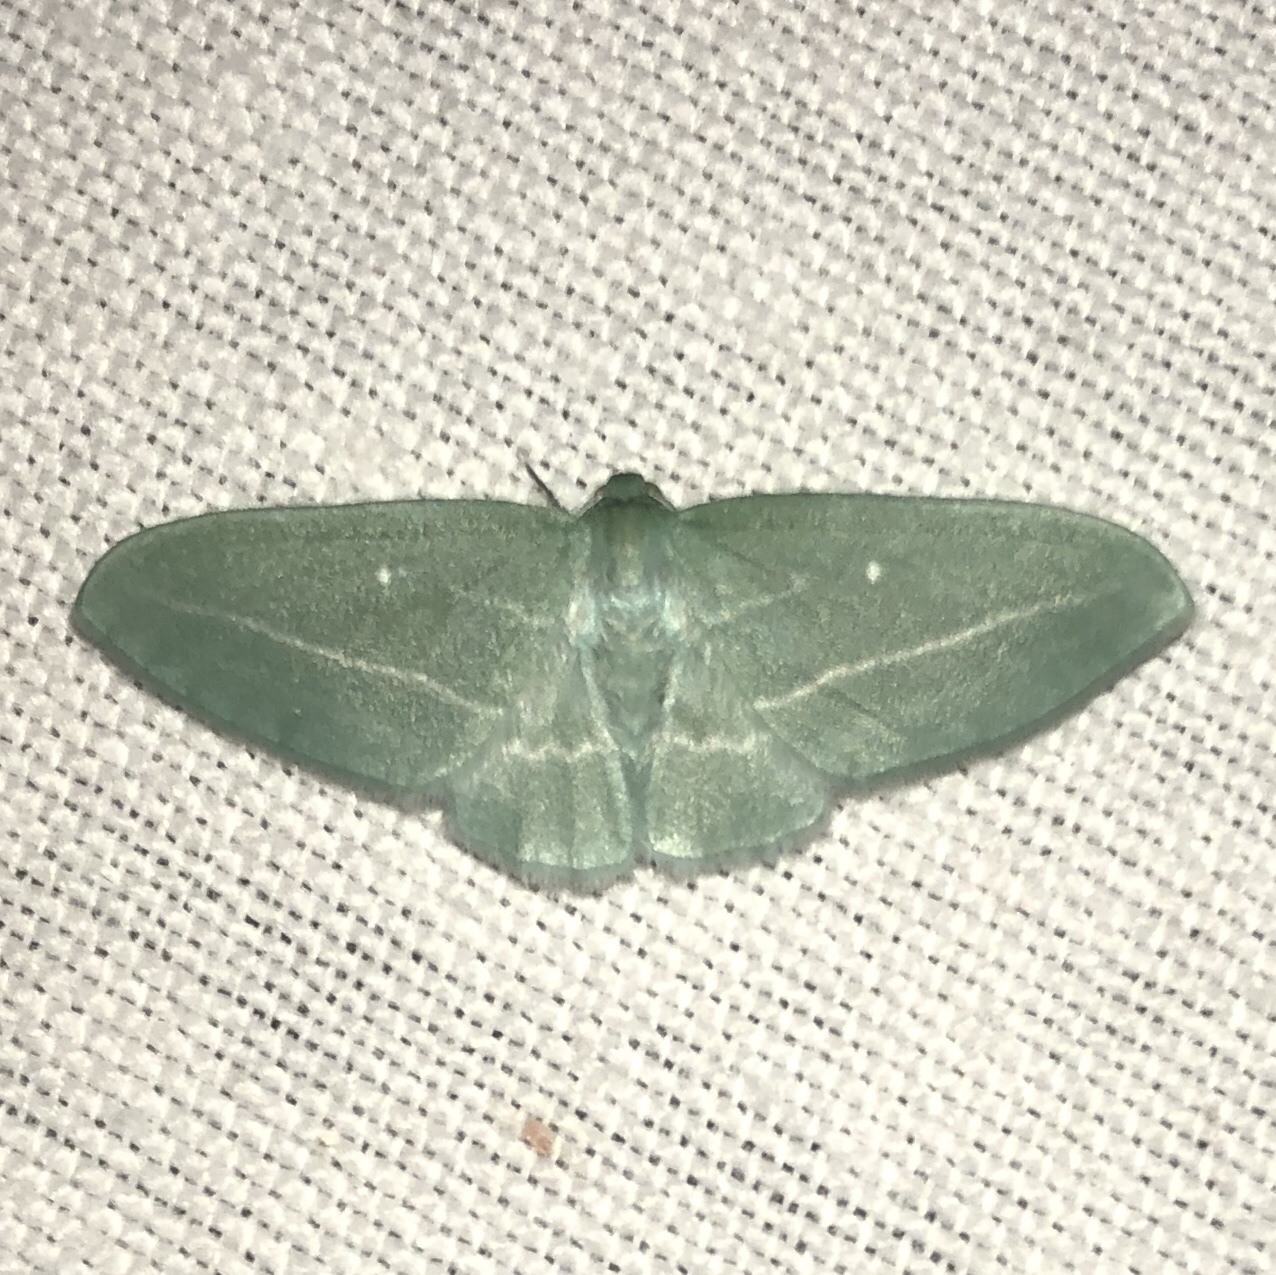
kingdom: Animalia
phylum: Arthropoda
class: Insecta
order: Lepidoptera
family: Geometridae
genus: Dyspteris
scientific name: Dyspteris abortivaria
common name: Bad-wing
